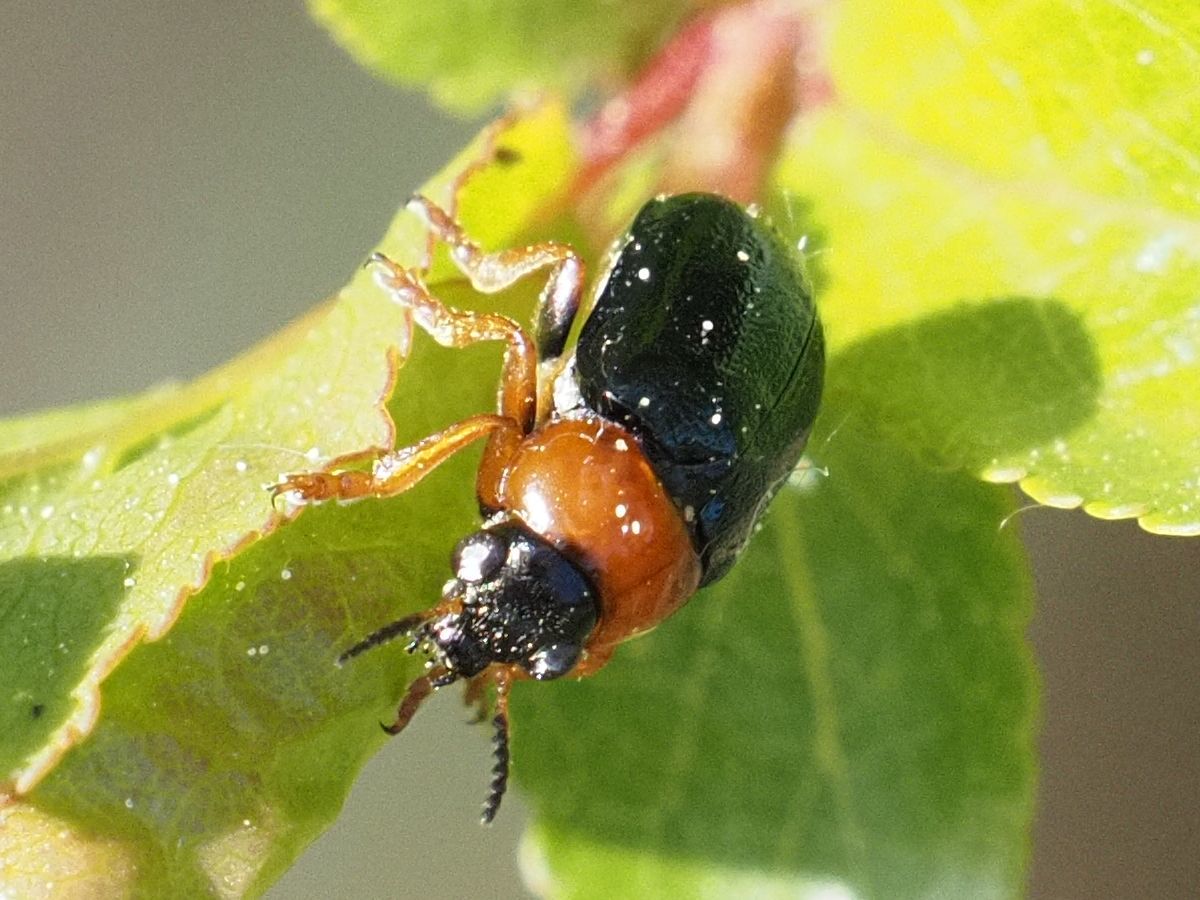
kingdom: Animalia
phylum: Arthropoda
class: Insecta
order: Coleoptera
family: Chrysomelidae
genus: Smaragdina
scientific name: Smaragdina salicina
